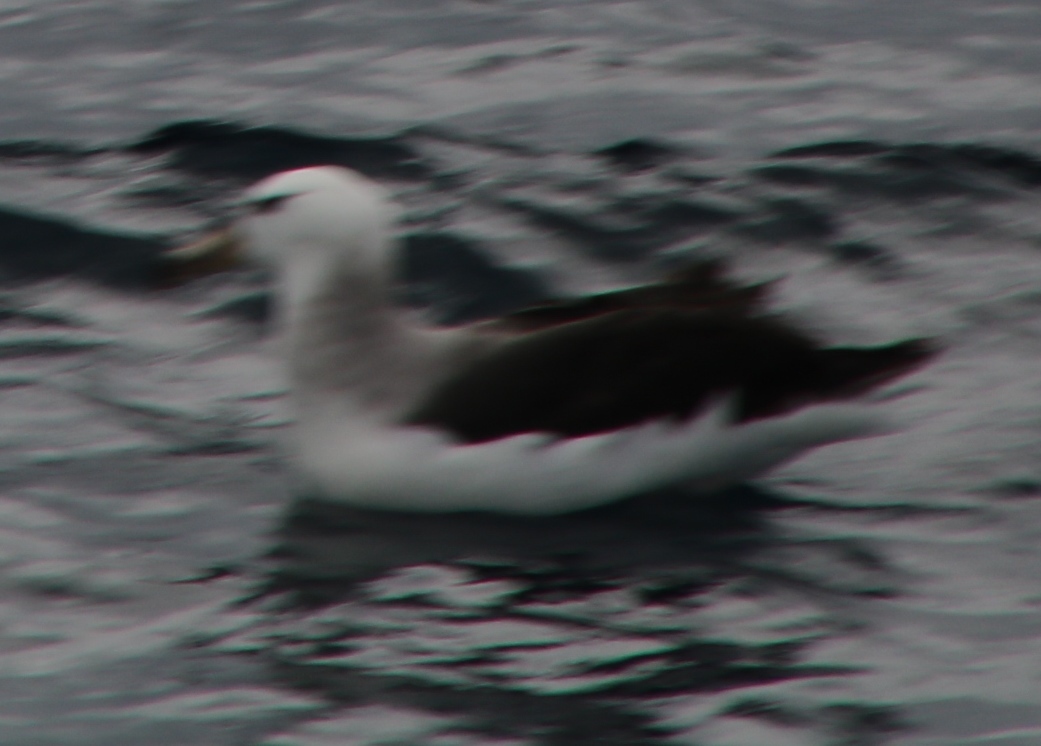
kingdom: Animalia
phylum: Chordata
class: Aves
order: Procellariiformes
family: Diomedeidae
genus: Thalassarche
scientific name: Thalassarche melanophris
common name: Black-browed albatross
